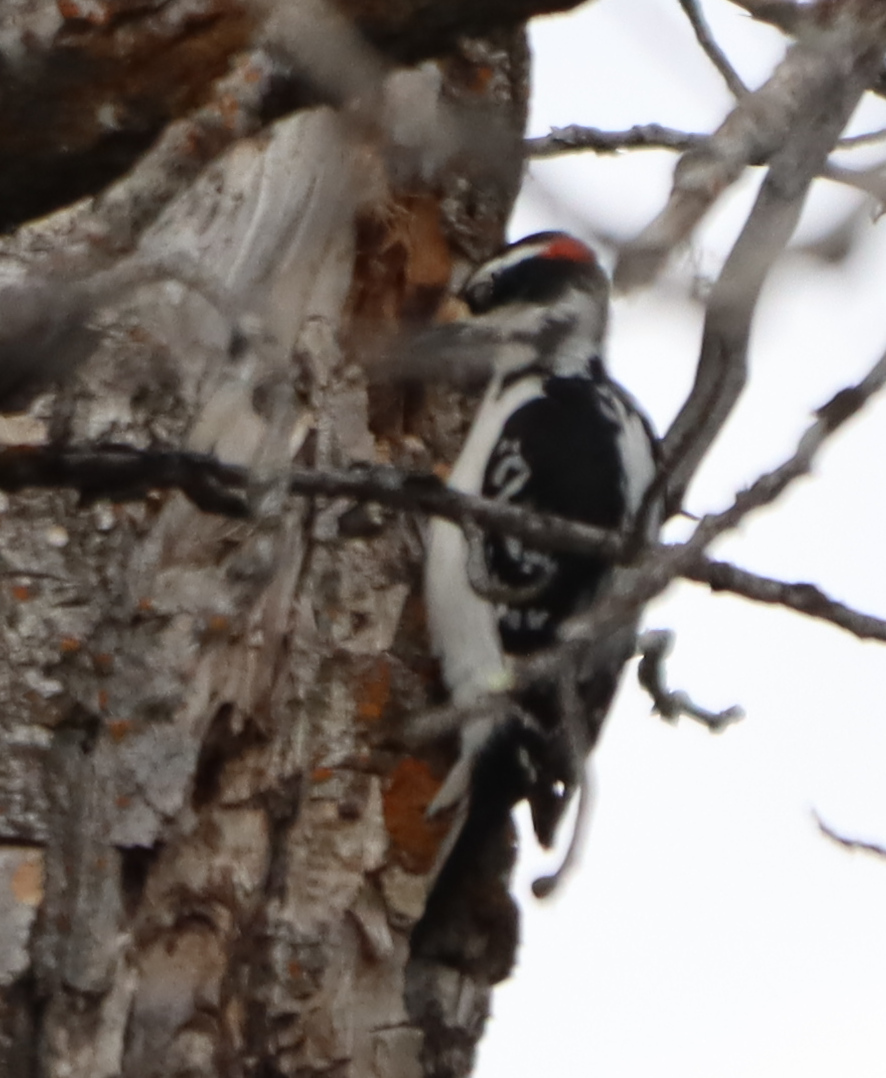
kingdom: Animalia
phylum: Chordata
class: Aves
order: Piciformes
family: Picidae
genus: Leuconotopicus
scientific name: Leuconotopicus villosus
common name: Hairy woodpecker
